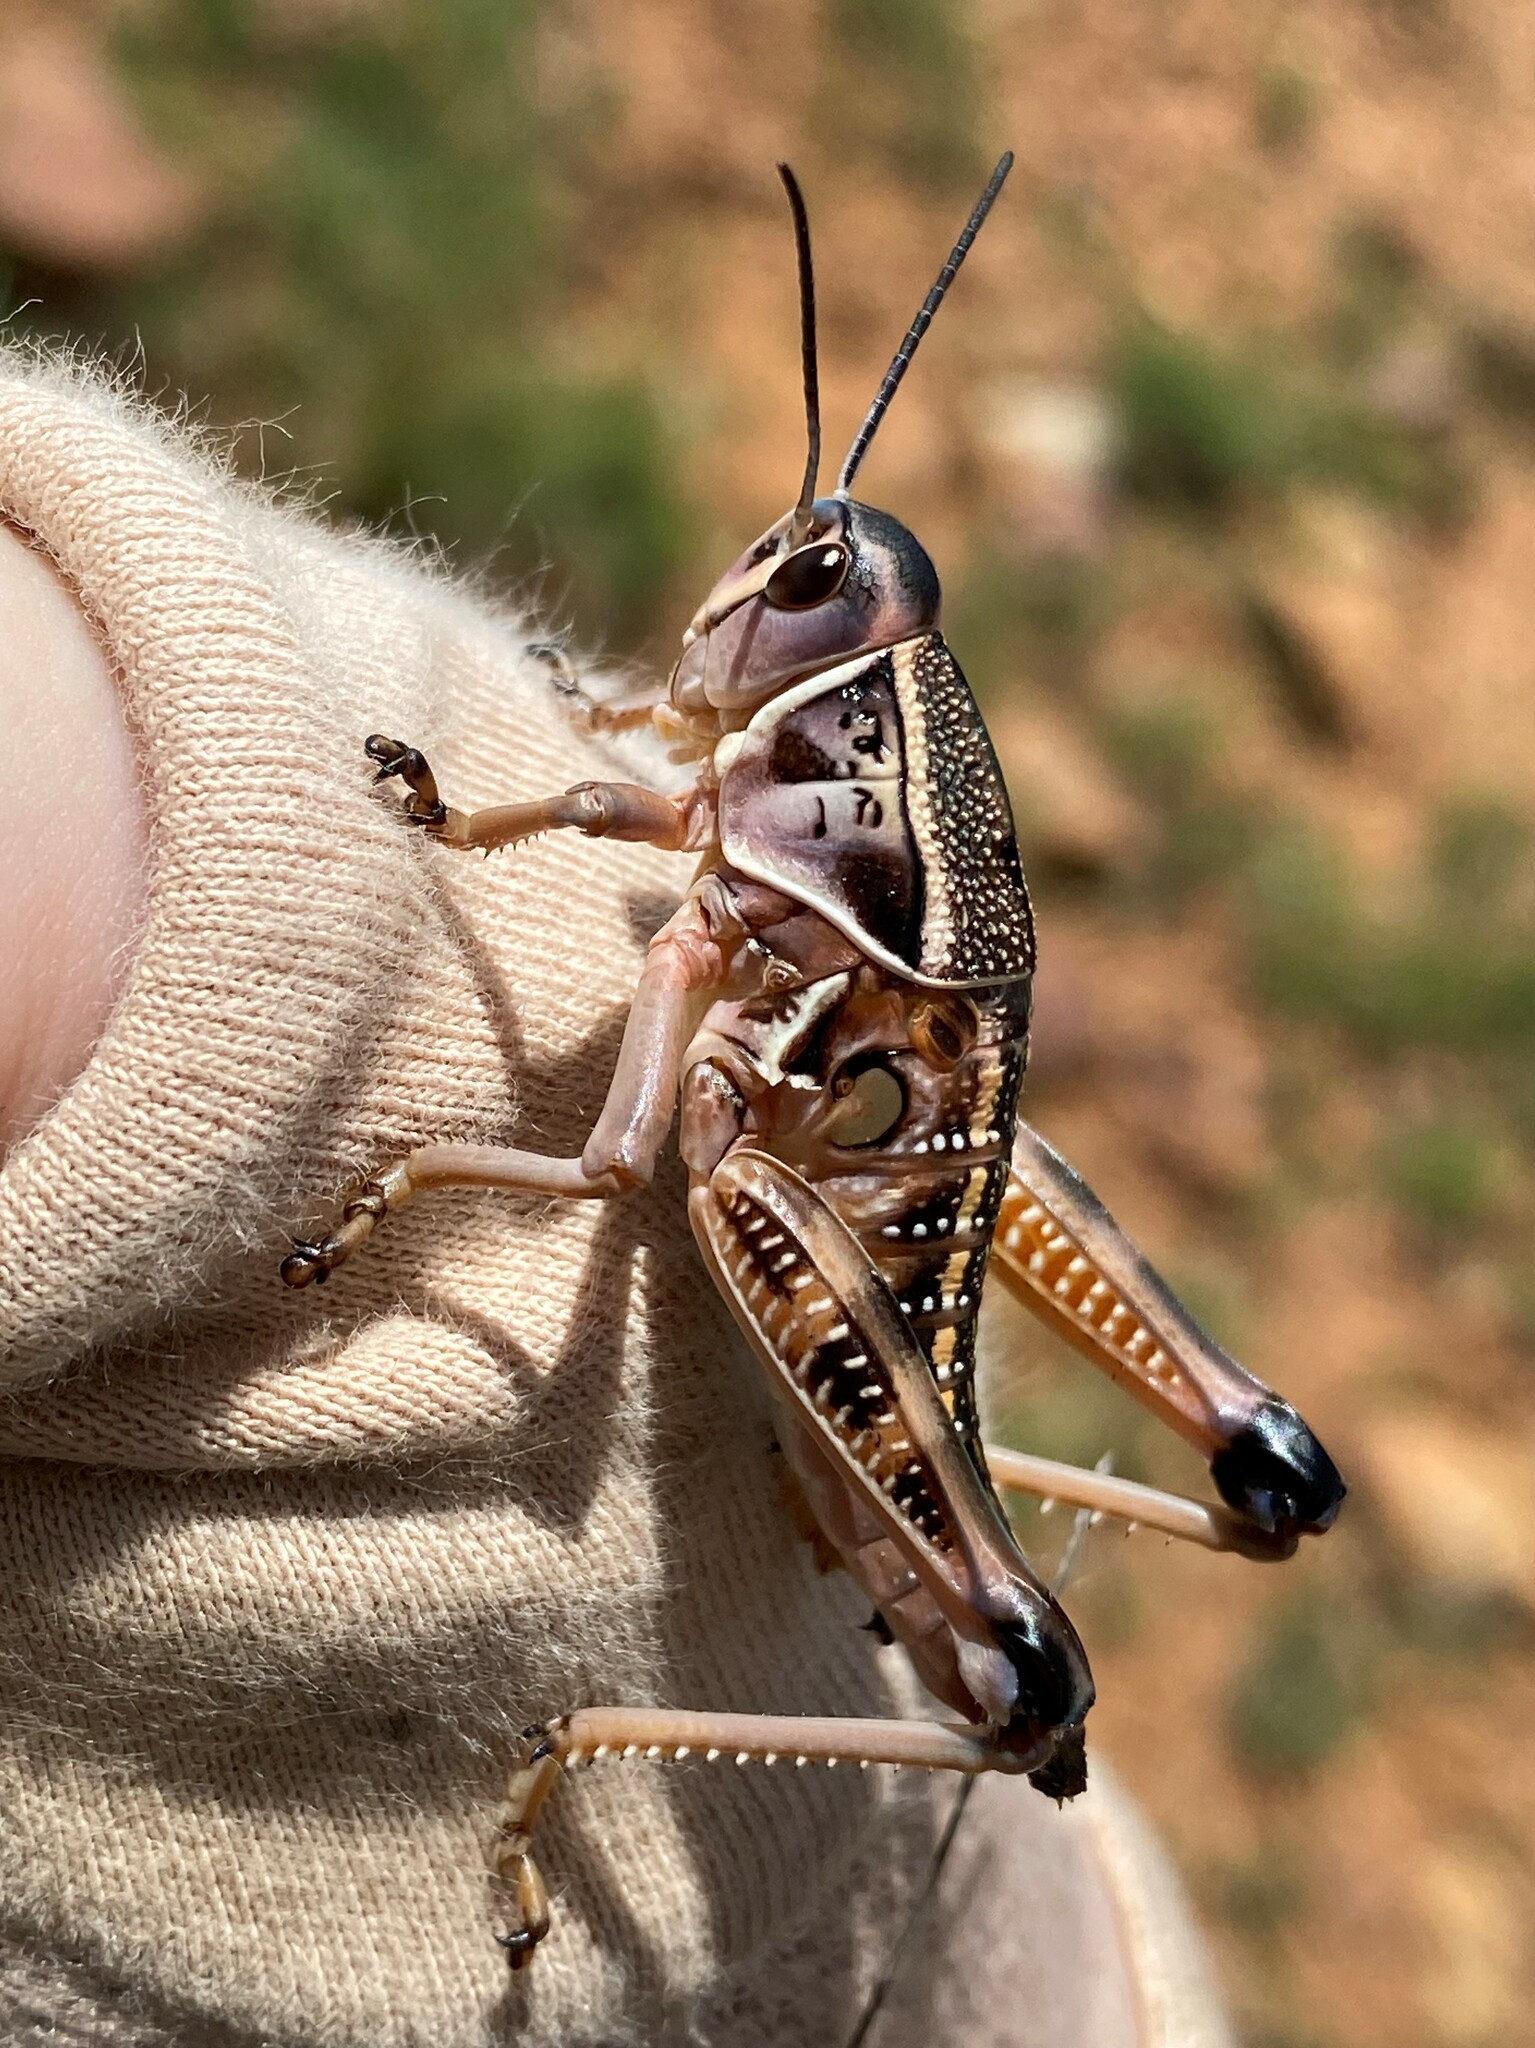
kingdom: Animalia
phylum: Arthropoda
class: Insecta
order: Orthoptera
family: Romaleidae
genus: Brachystola
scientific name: Brachystola magna
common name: Plains lubber grasshopper
